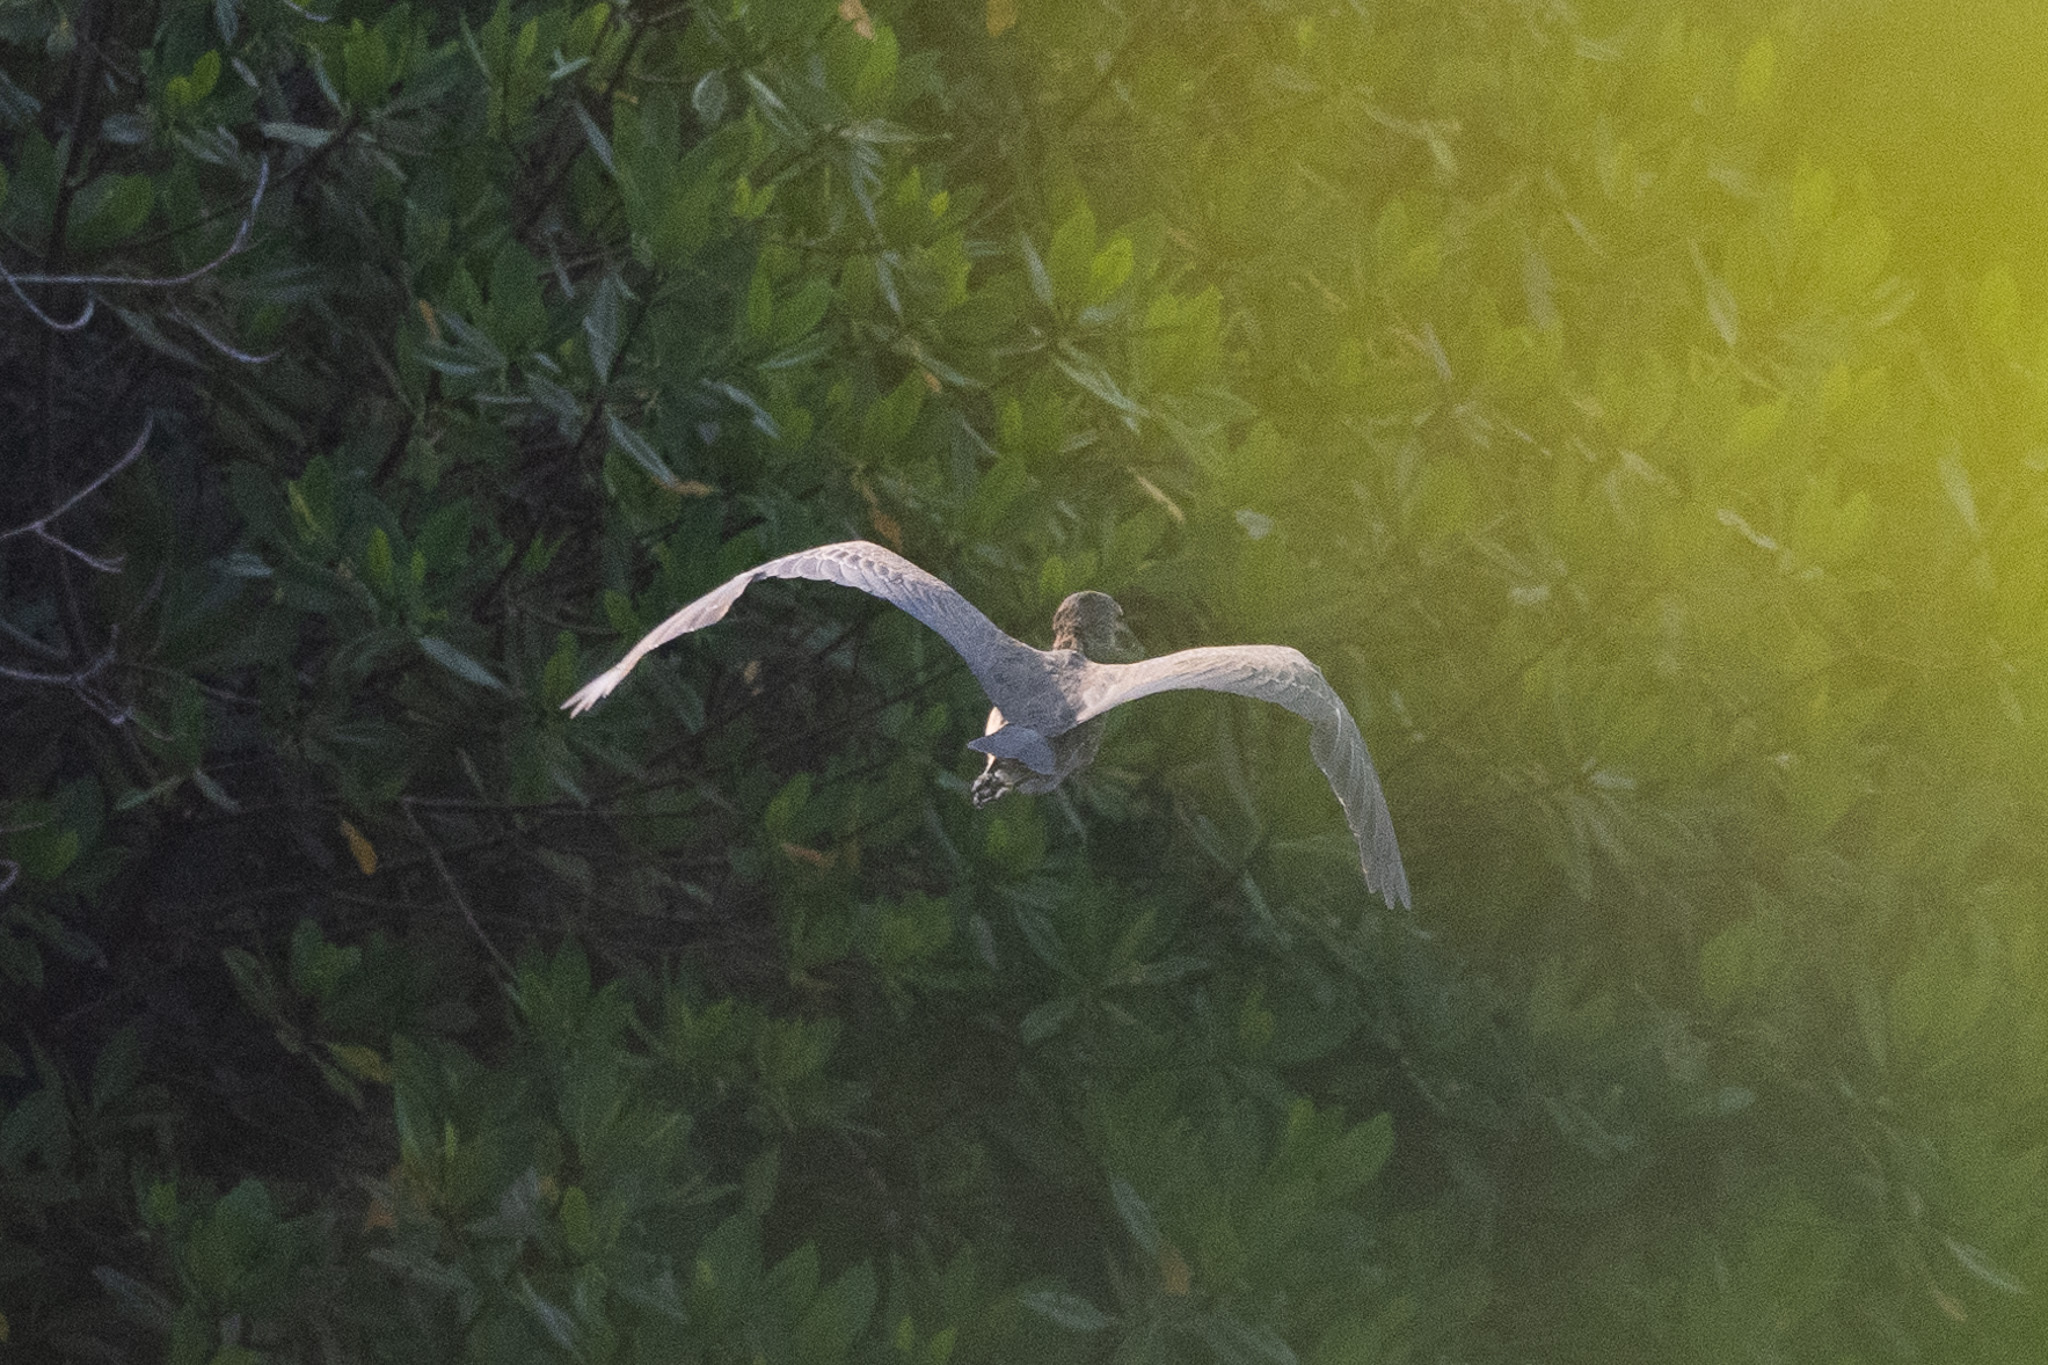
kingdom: Animalia
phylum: Chordata
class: Aves
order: Pelecaniformes
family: Ardeidae
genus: Nyctanassa
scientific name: Nyctanassa violacea
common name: Yellow-crowned night heron
